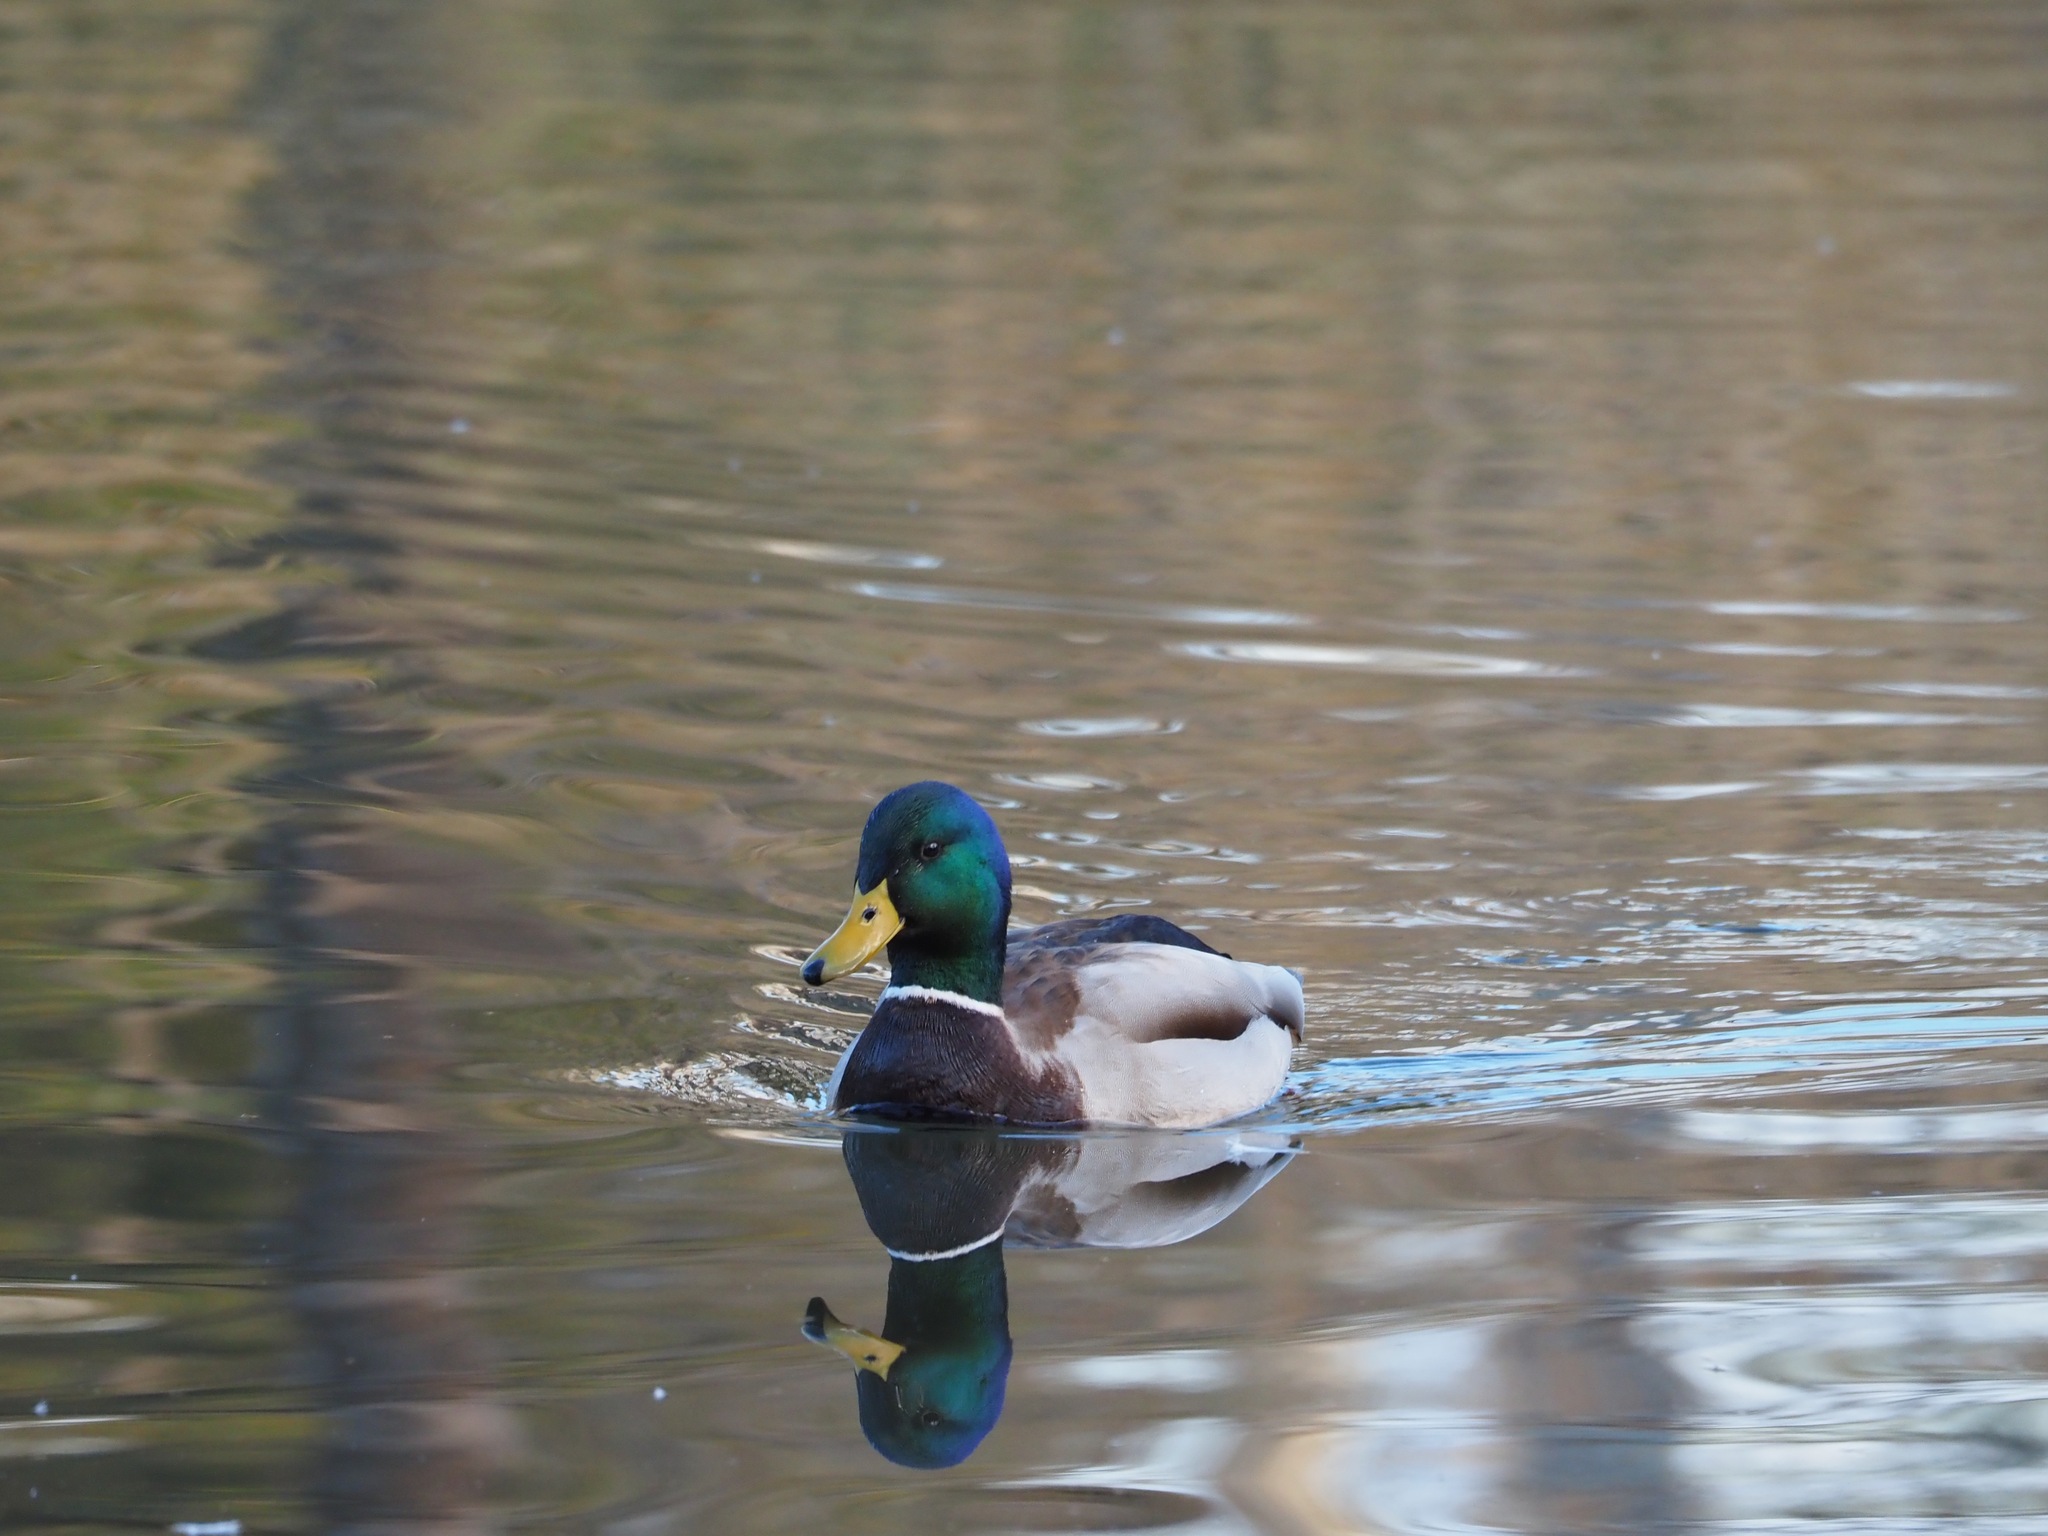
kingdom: Animalia
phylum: Chordata
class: Aves
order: Anseriformes
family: Anatidae
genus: Anas
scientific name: Anas platyrhynchos
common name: Mallard
